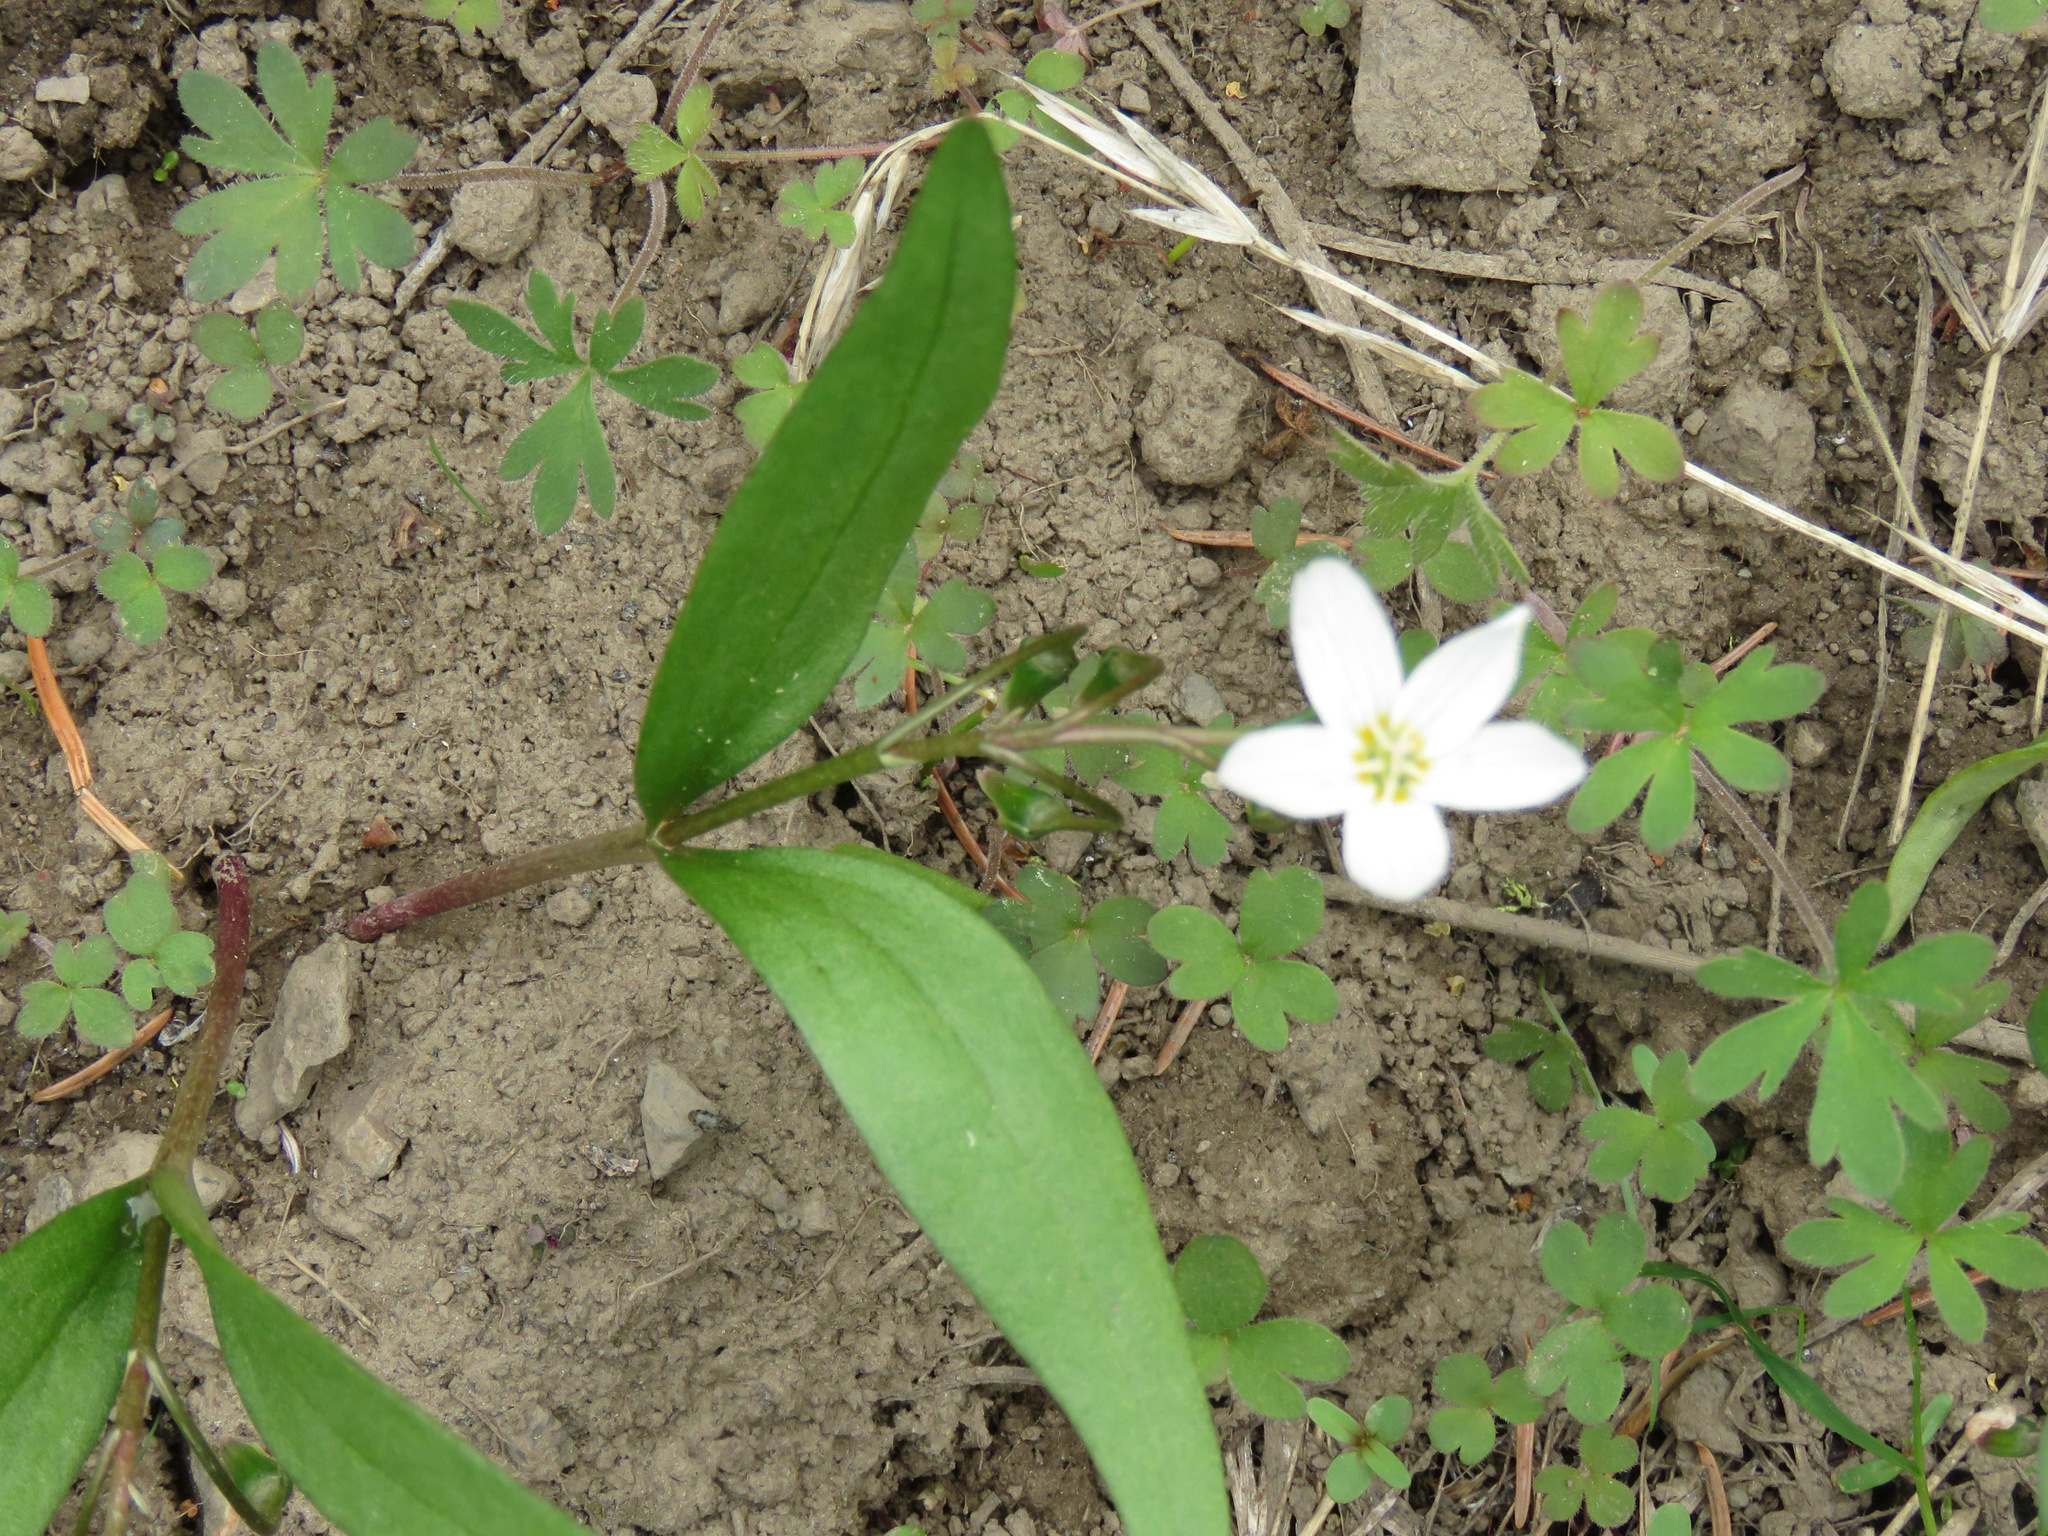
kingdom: Plantae
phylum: Tracheophyta
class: Magnoliopsida
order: Caryophyllales
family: Montiaceae
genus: Claytonia
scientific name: Claytonia lanceolata
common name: Western spring-beauty
